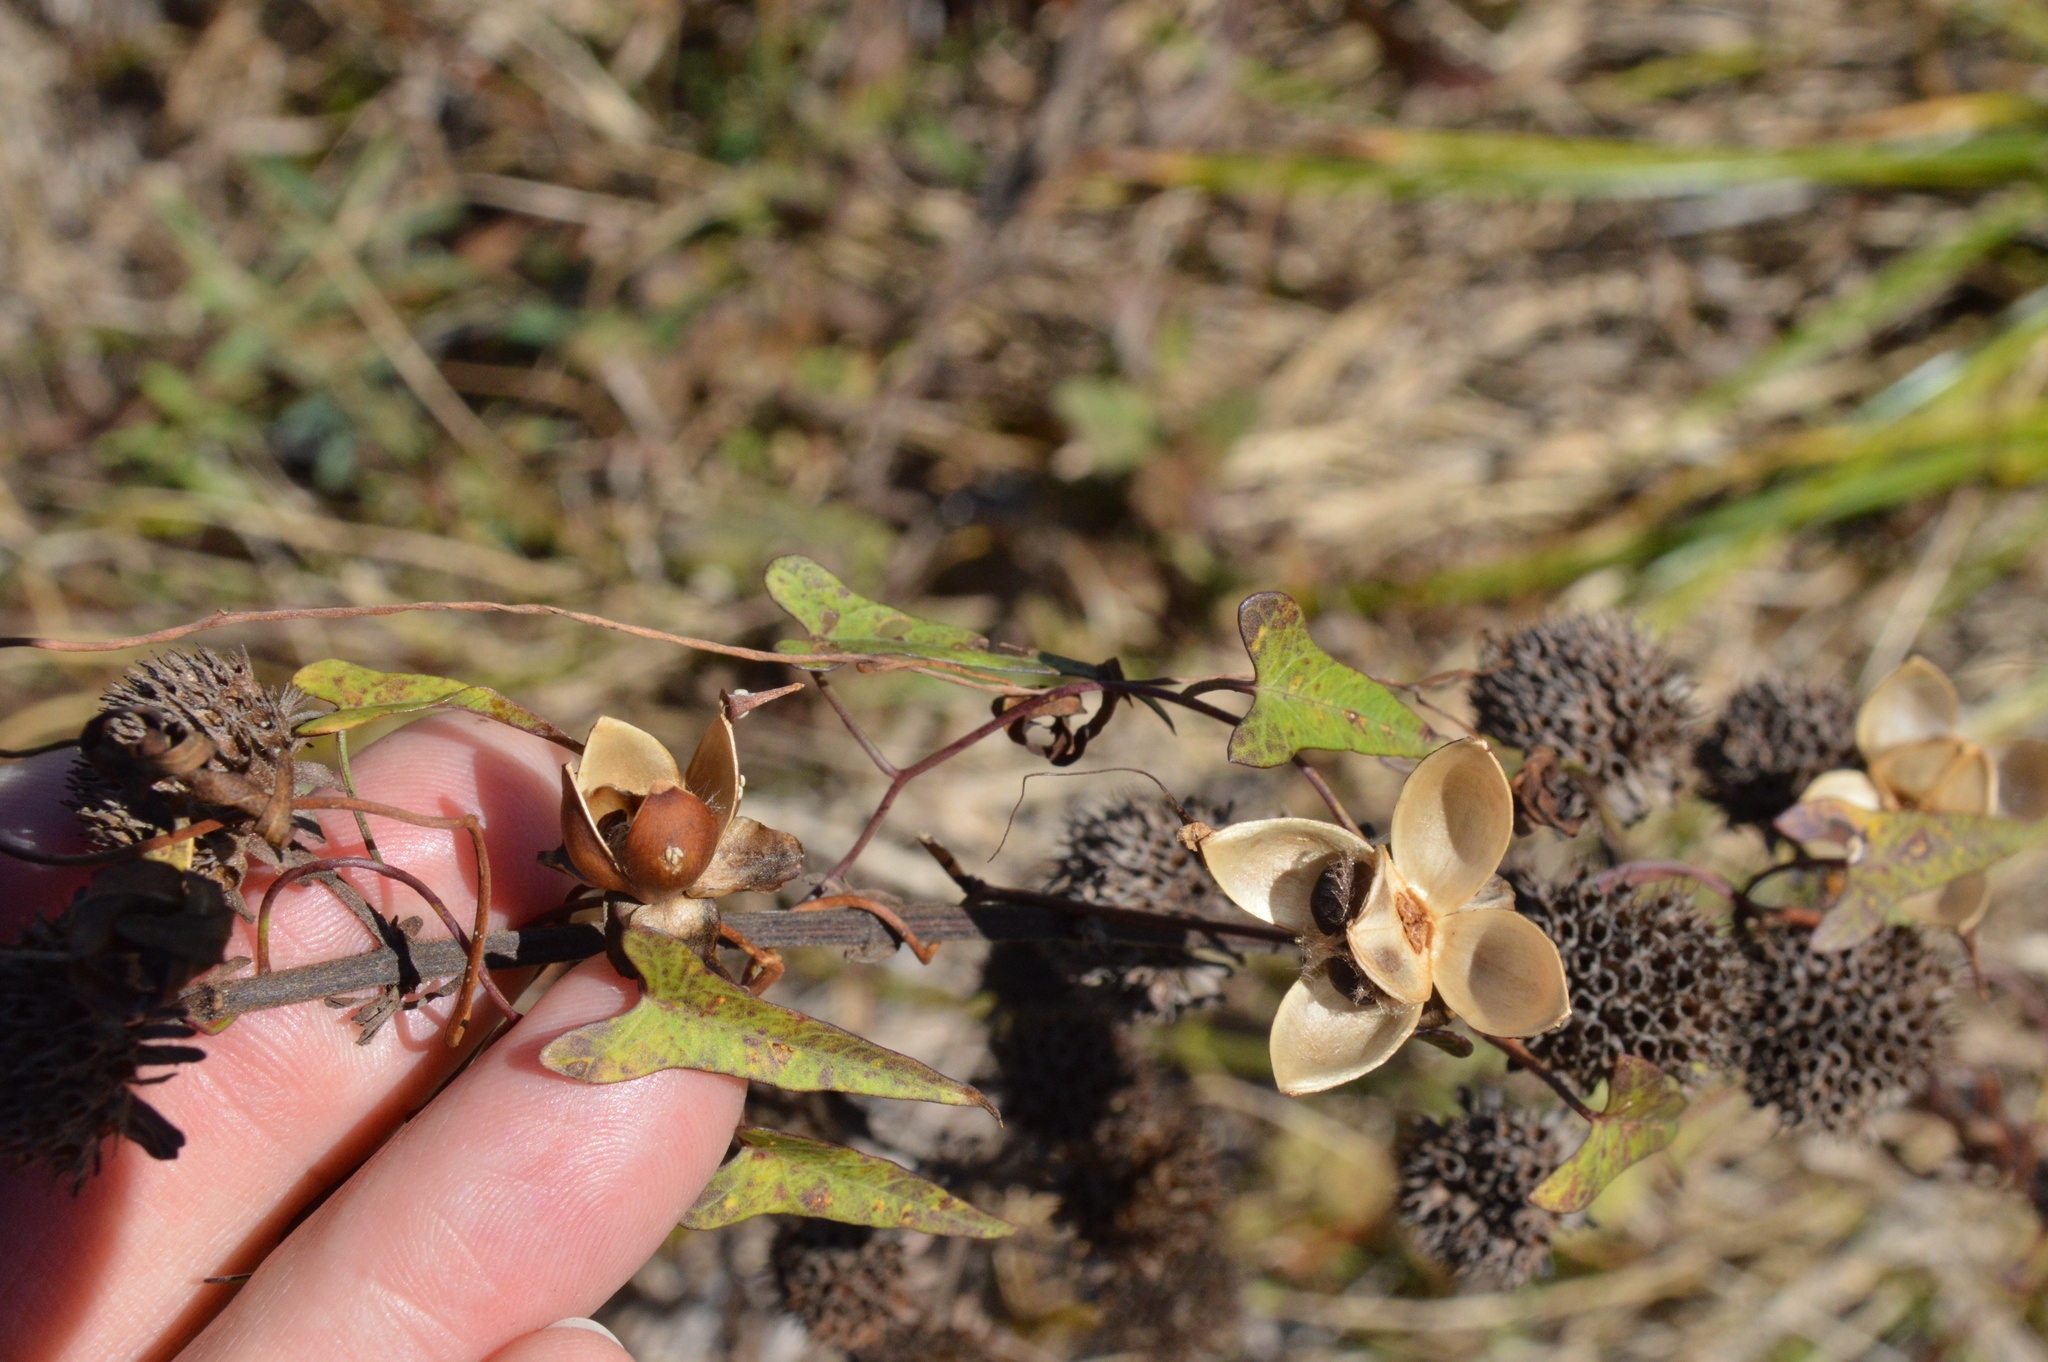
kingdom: Plantae
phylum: Tracheophyta
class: Magnoliopsida
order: Solanales
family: Convolvulaceae
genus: Ipomoea
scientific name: Ipomoea sagittata
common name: Saltmarsh morning glory
